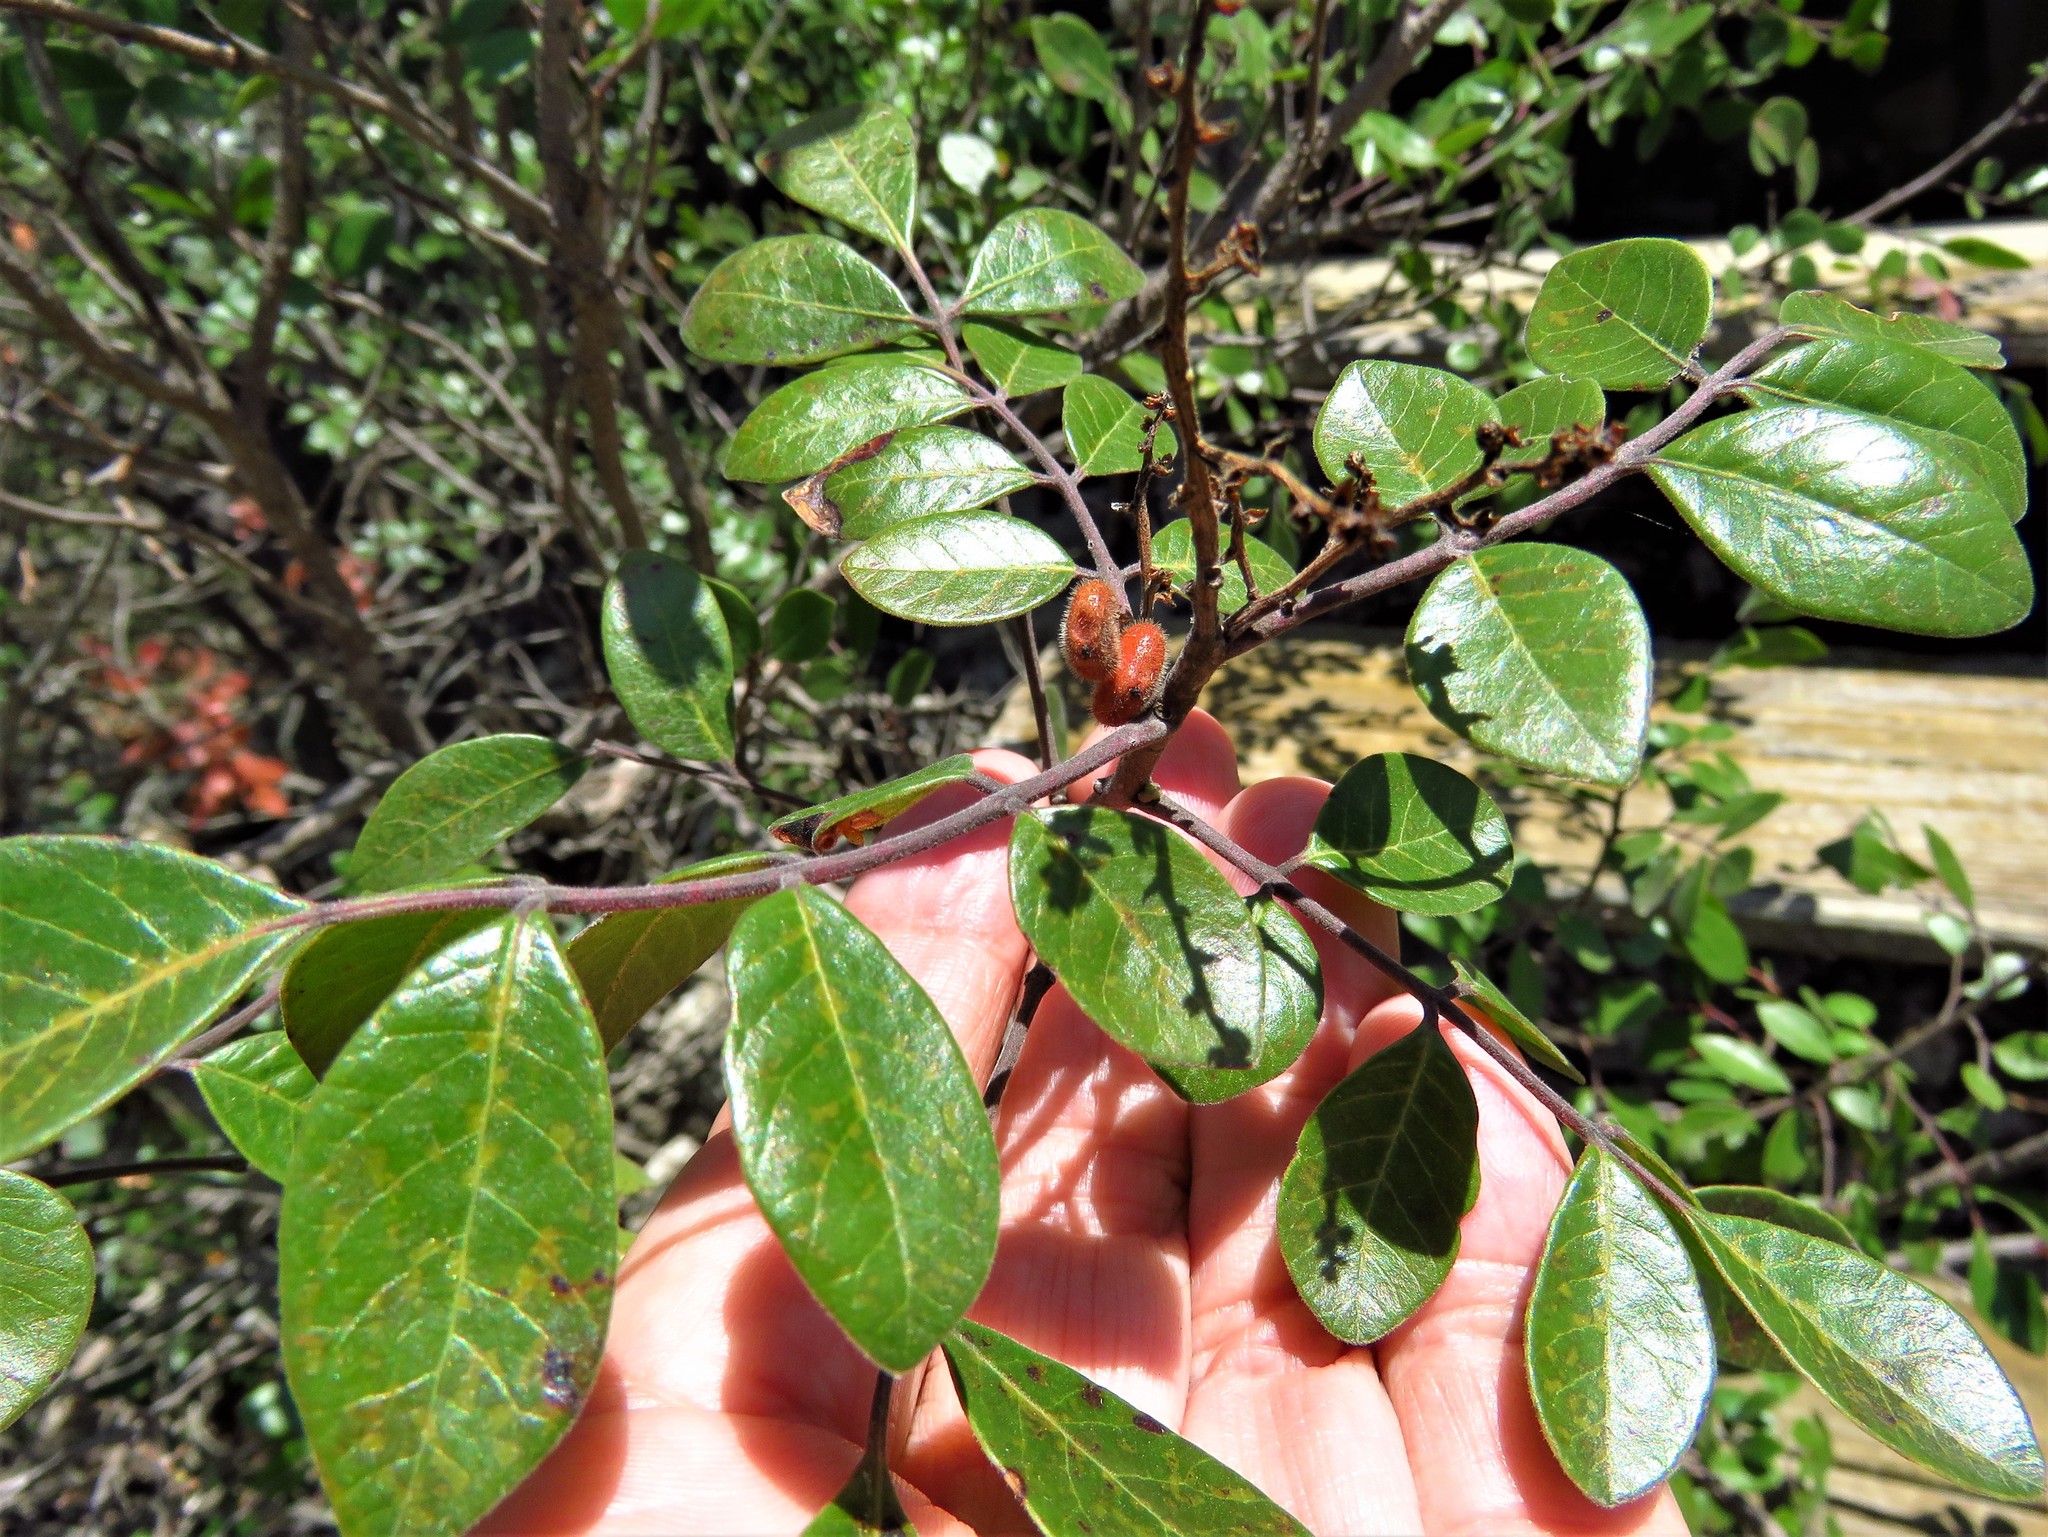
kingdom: Plantae
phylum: Tracheophyta
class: Magnoliopsida
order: Sapindales
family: Anacardiaceae
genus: Rhus
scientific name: Rhus virens
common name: Evergreen sumac
